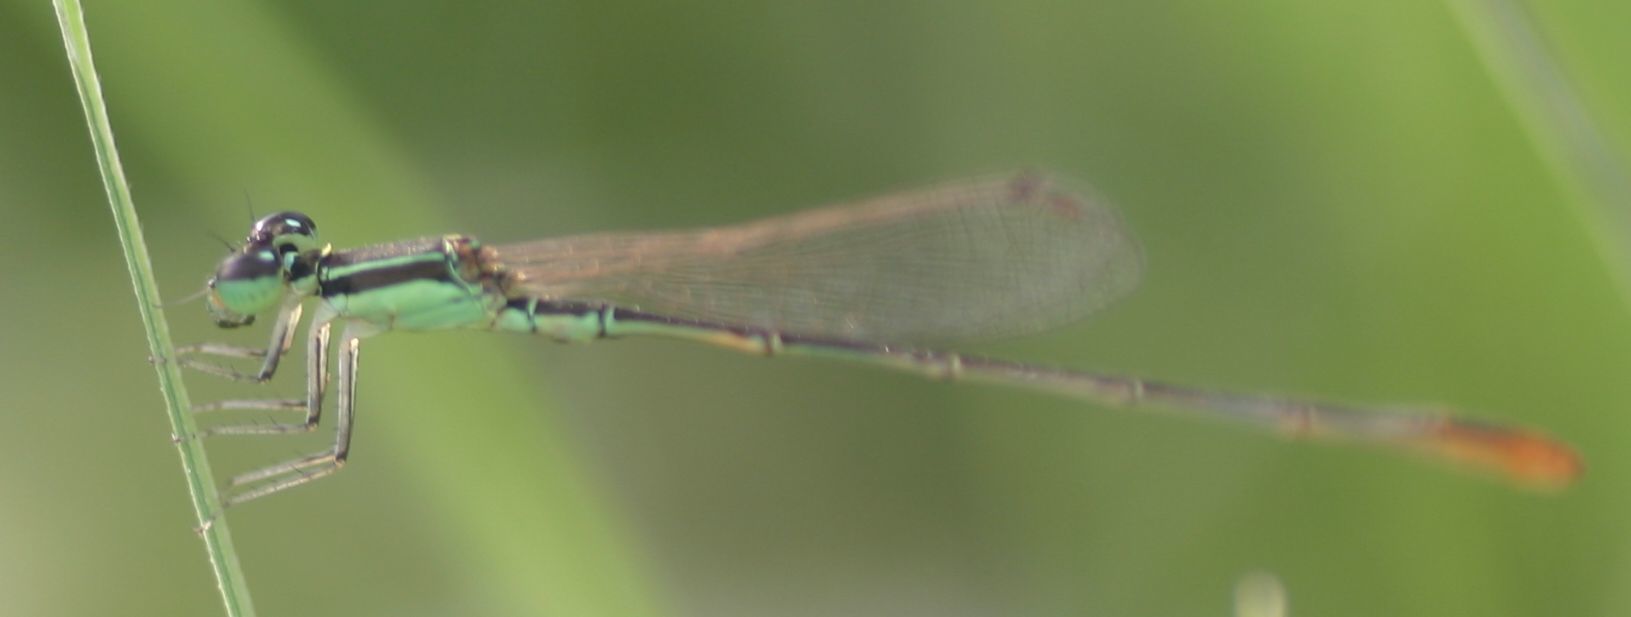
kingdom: Animalia
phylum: Arthropoda
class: Insecta
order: Odonata
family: Coenagrionidae
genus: Agriocnemis
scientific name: Agriocnemis pygmaea
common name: Pygmy wisp
